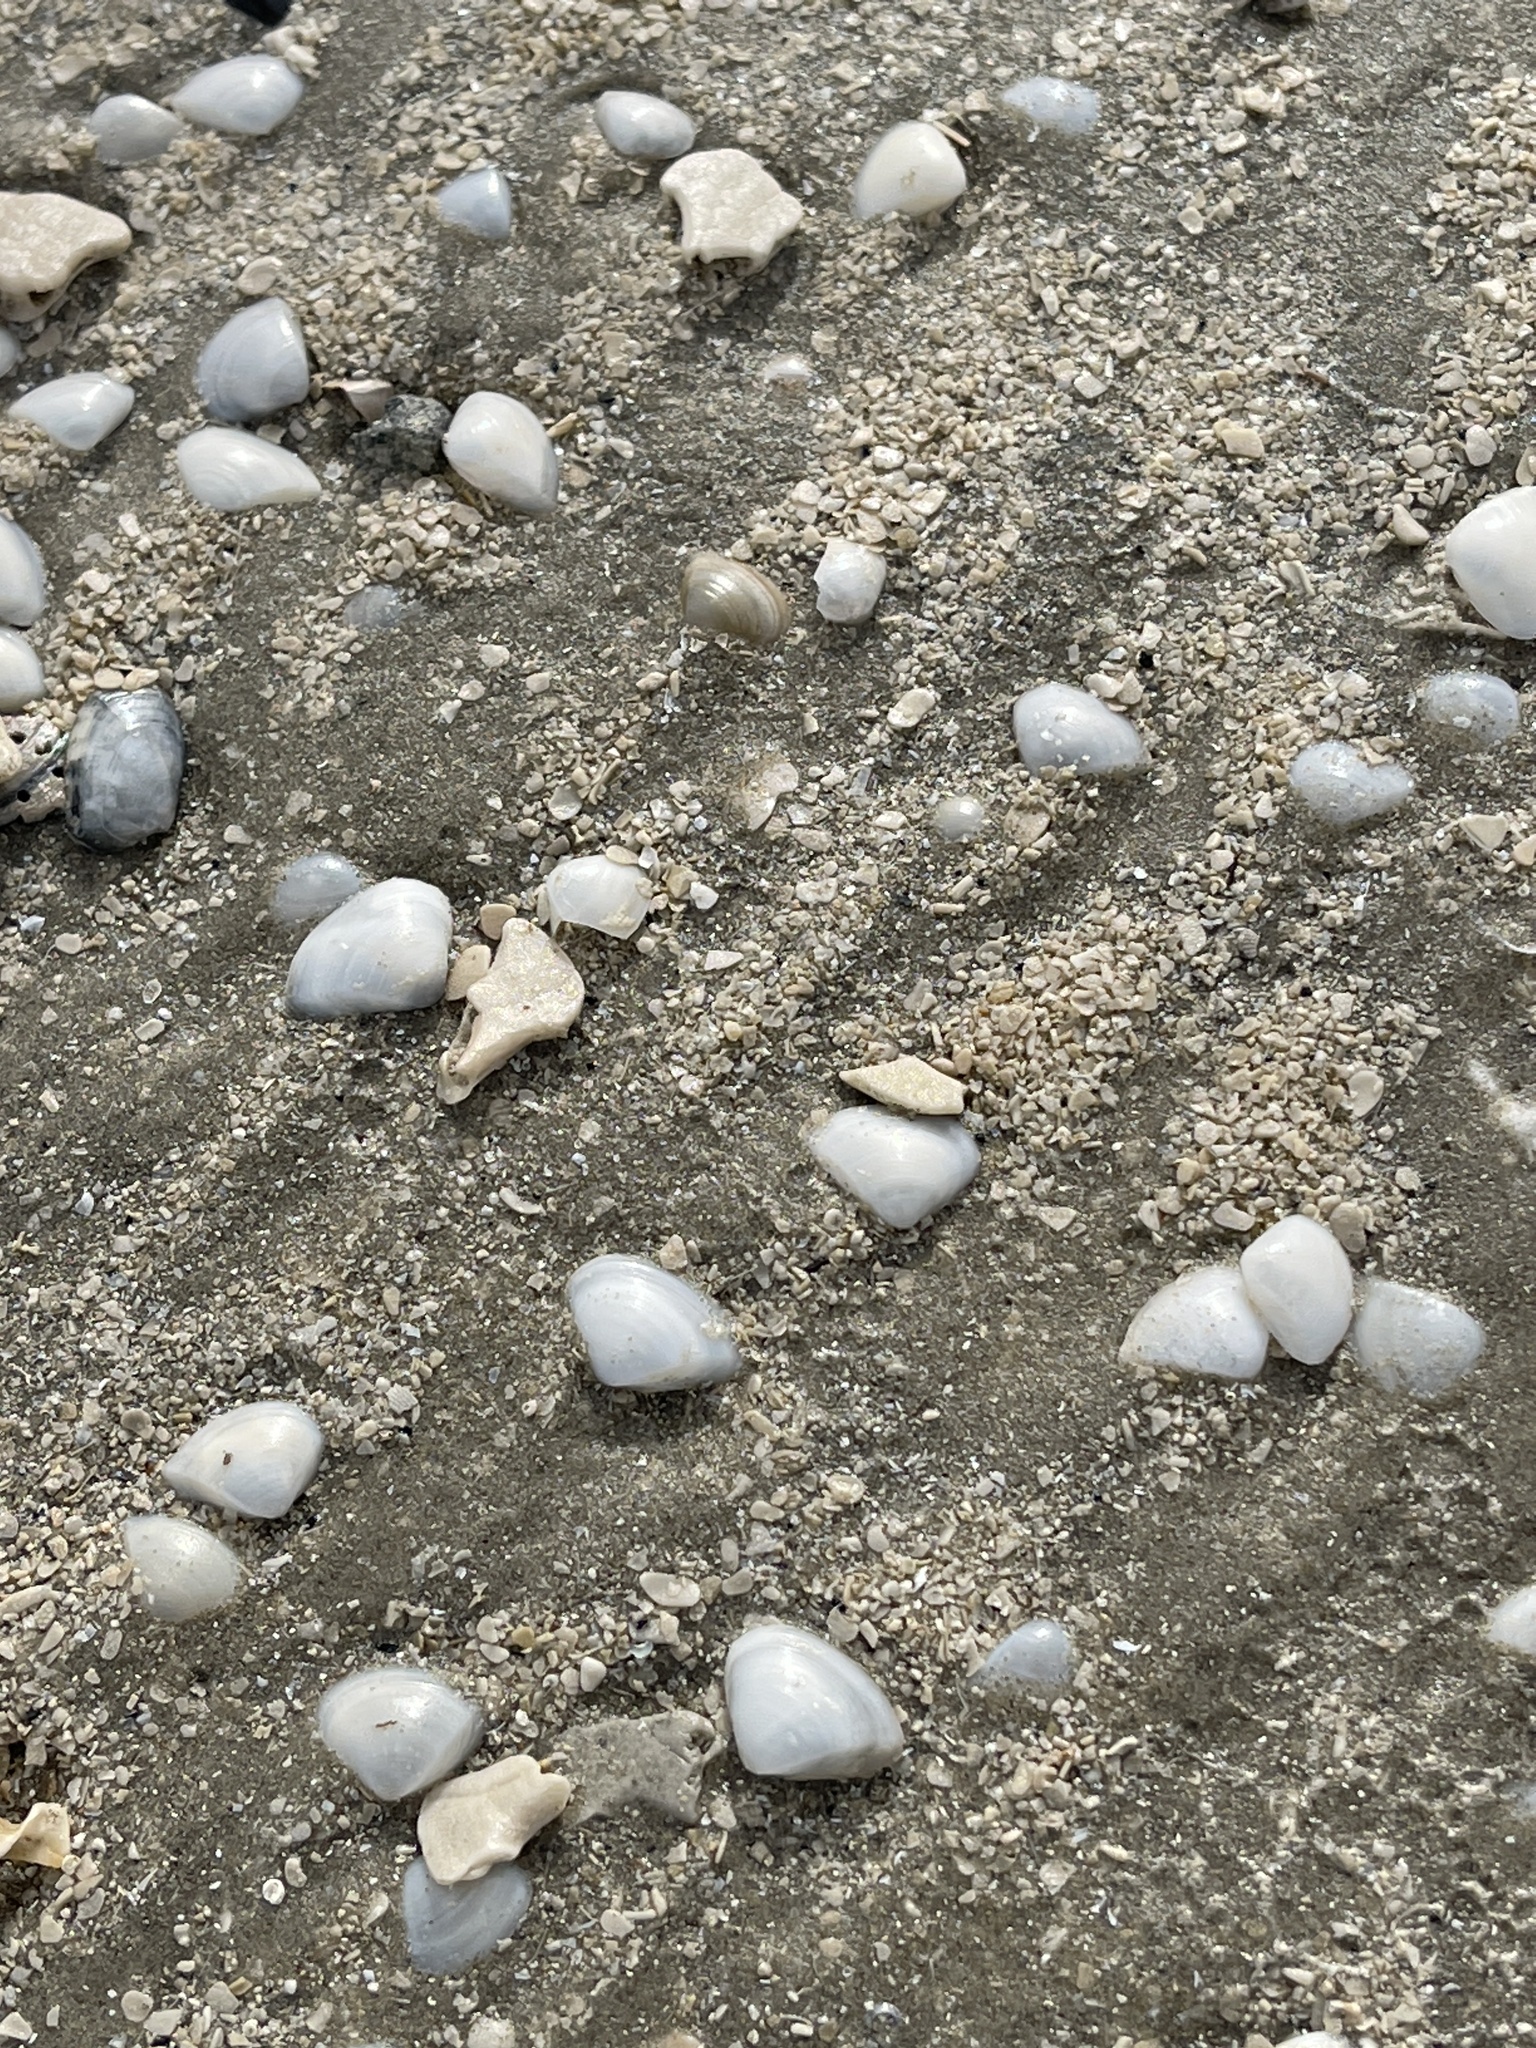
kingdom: Animalia
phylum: Mollusca
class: Bivalvia
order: Venerida
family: Mactridae
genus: Mulinia
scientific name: Mulinia lateralis
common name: Dwarf surfclam
